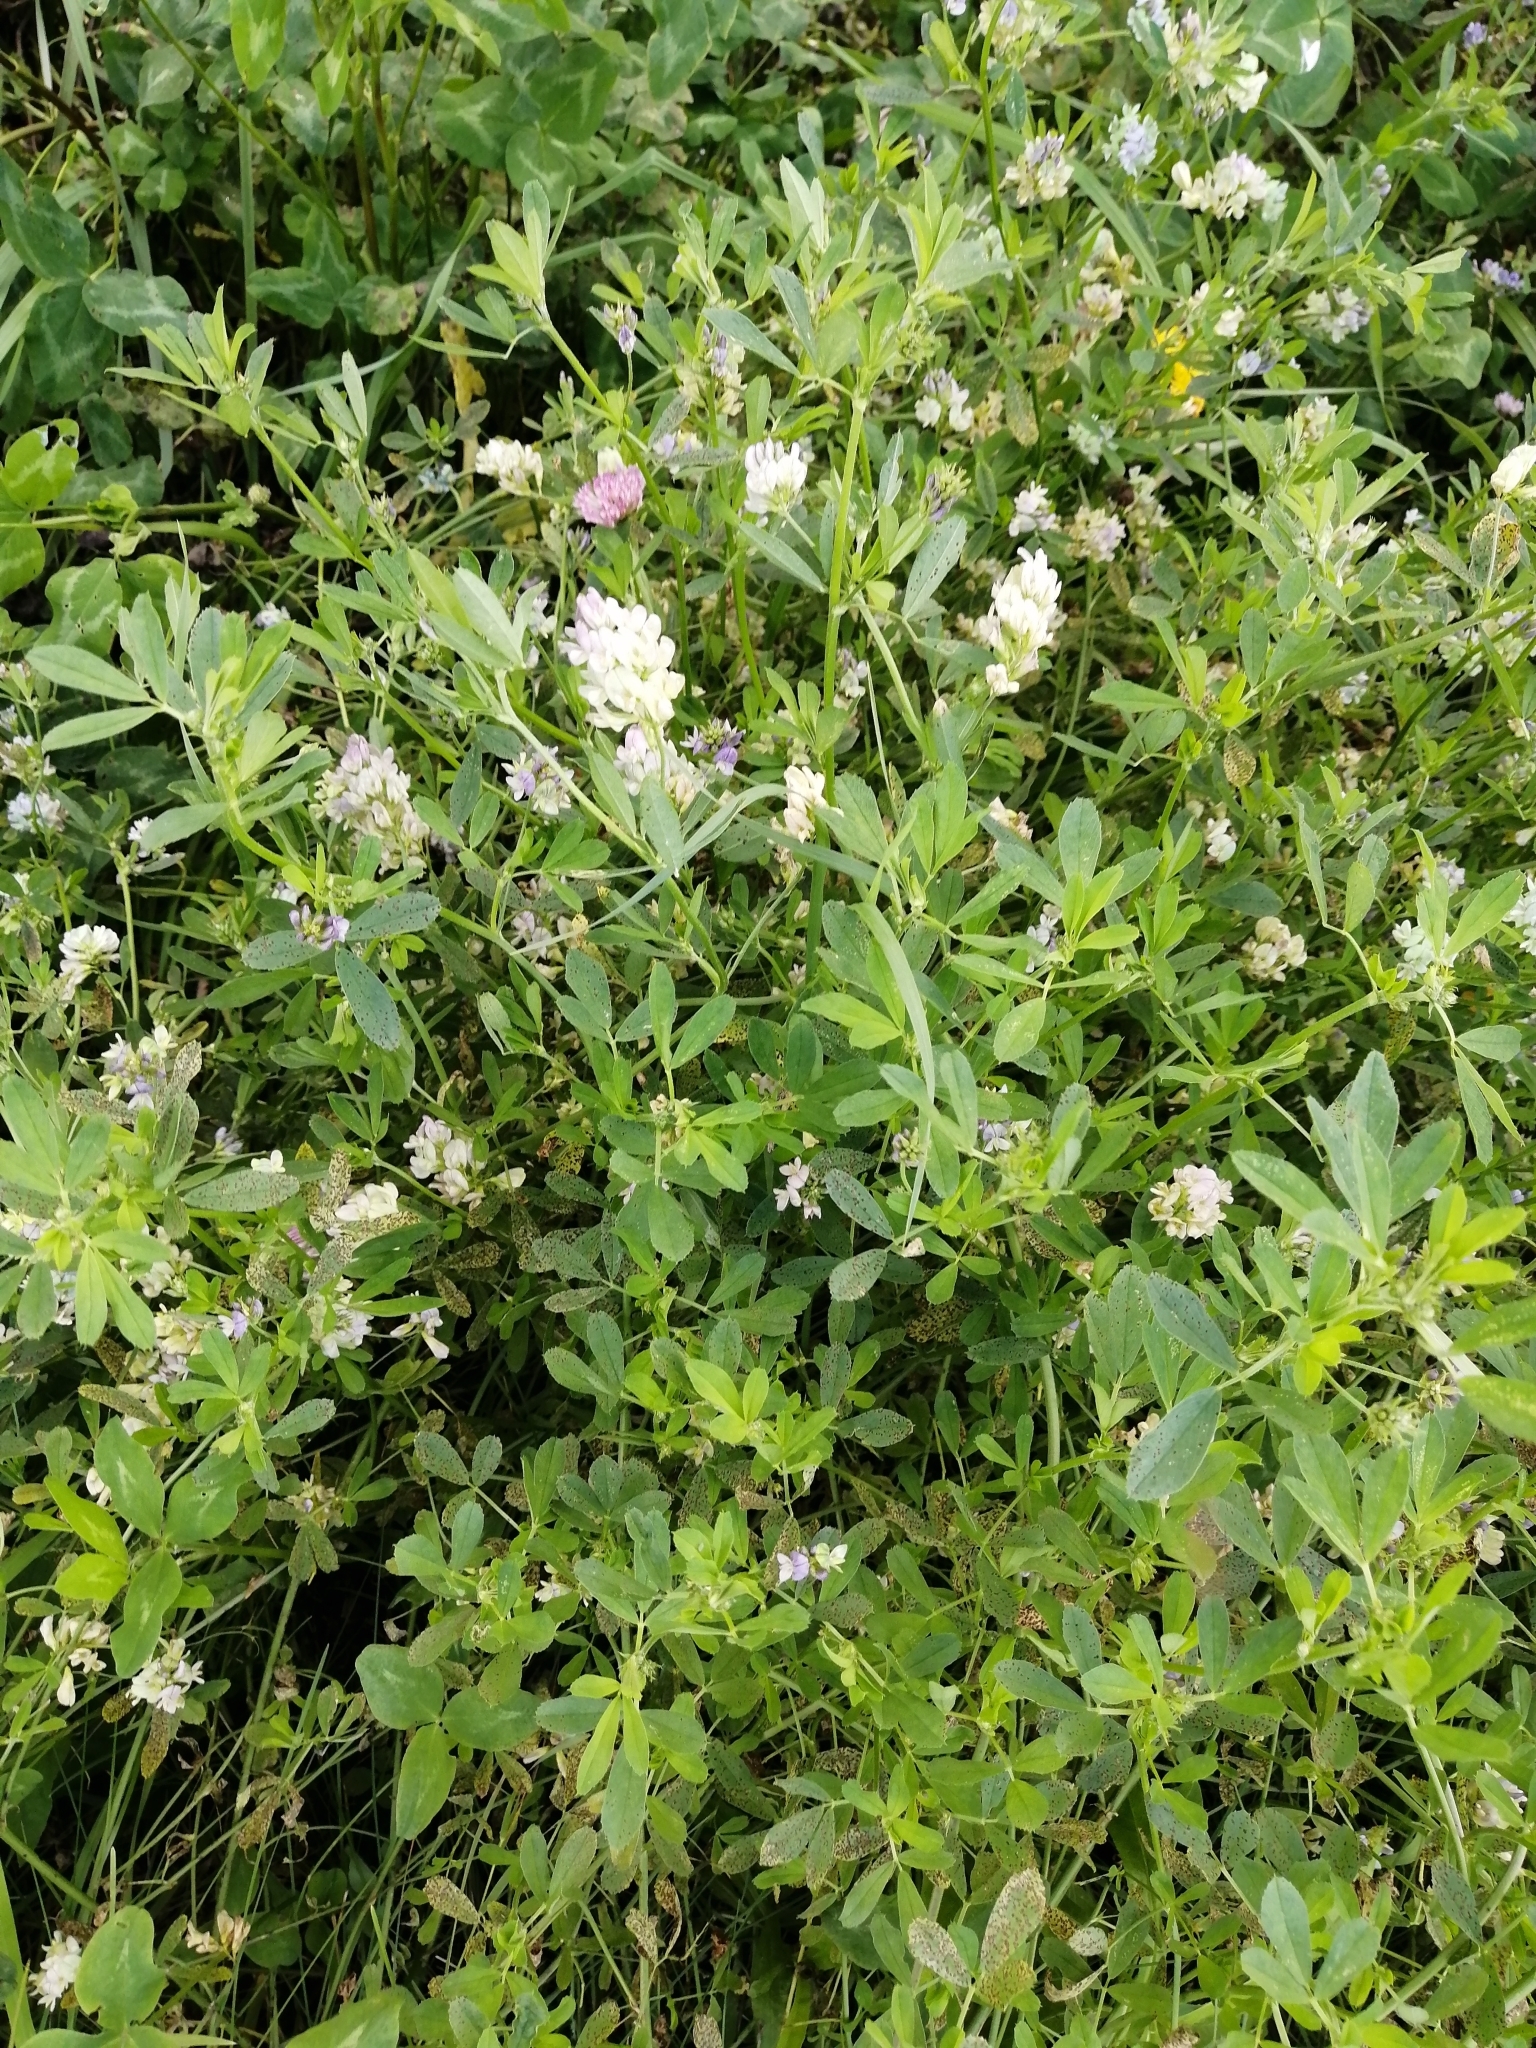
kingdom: Plantae
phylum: Tracheophyta
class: Magnoliopsida
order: Fabales
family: Fabaceae
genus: Medicago
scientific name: Medicago varia
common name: Sand lucerne
